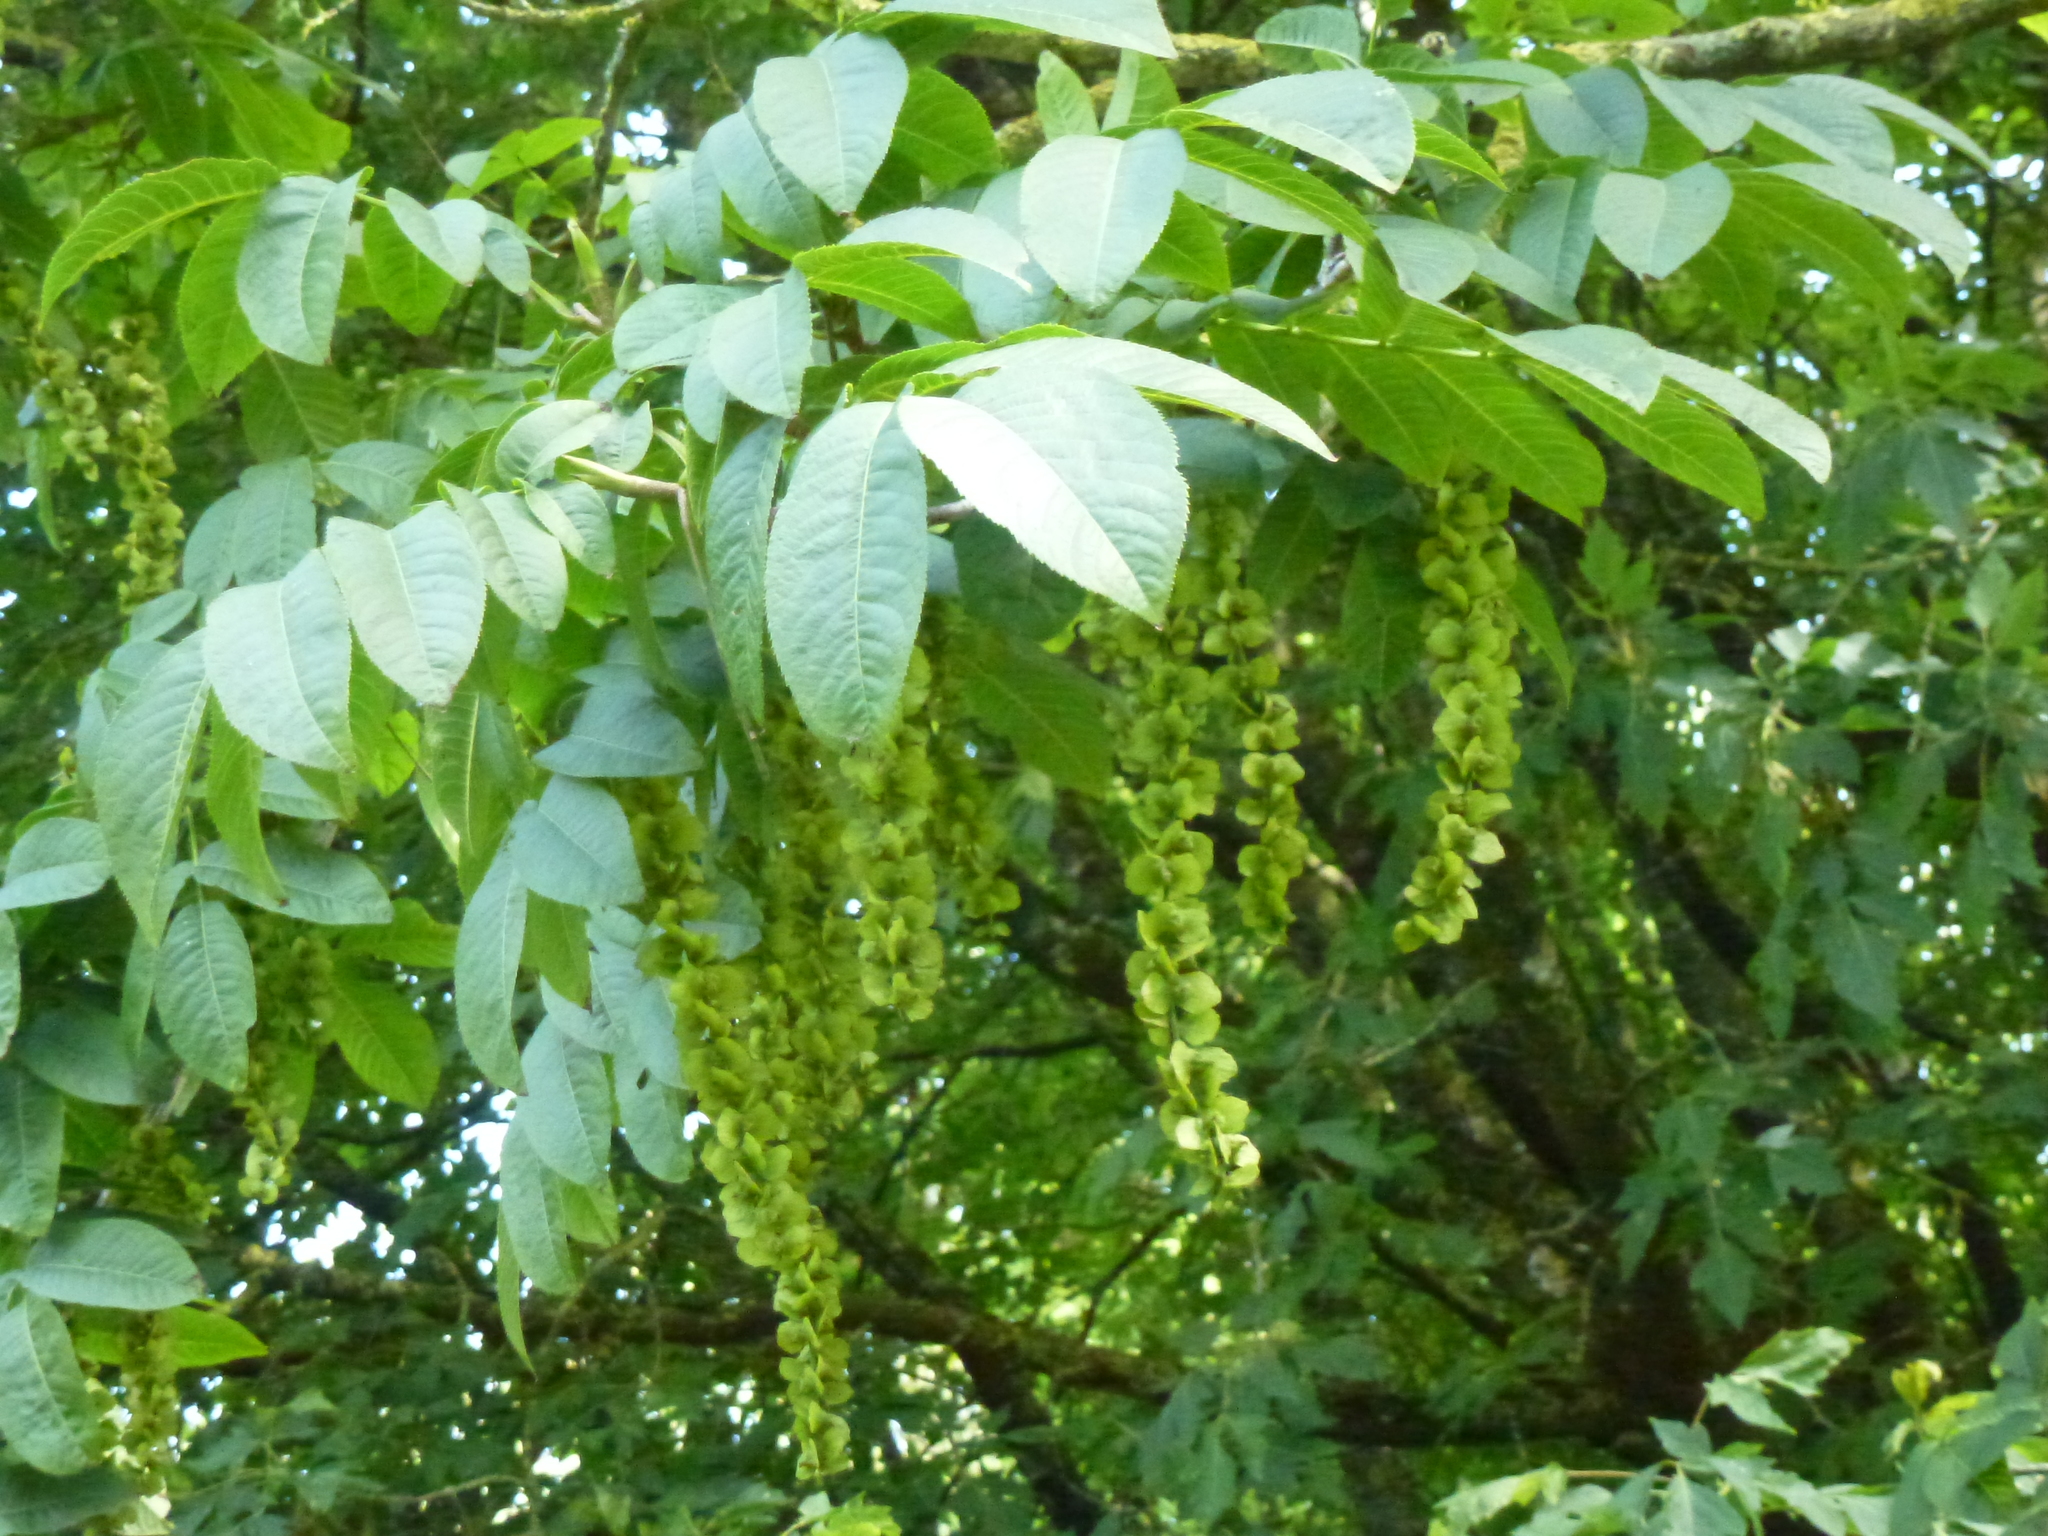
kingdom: Plantae
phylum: Tracheophyta
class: Magnoliopsida
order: Fagales
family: Juglandaceae
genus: Pterocarya
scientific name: Pterocarya fraxinifolia
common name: Caucasian wingnut
